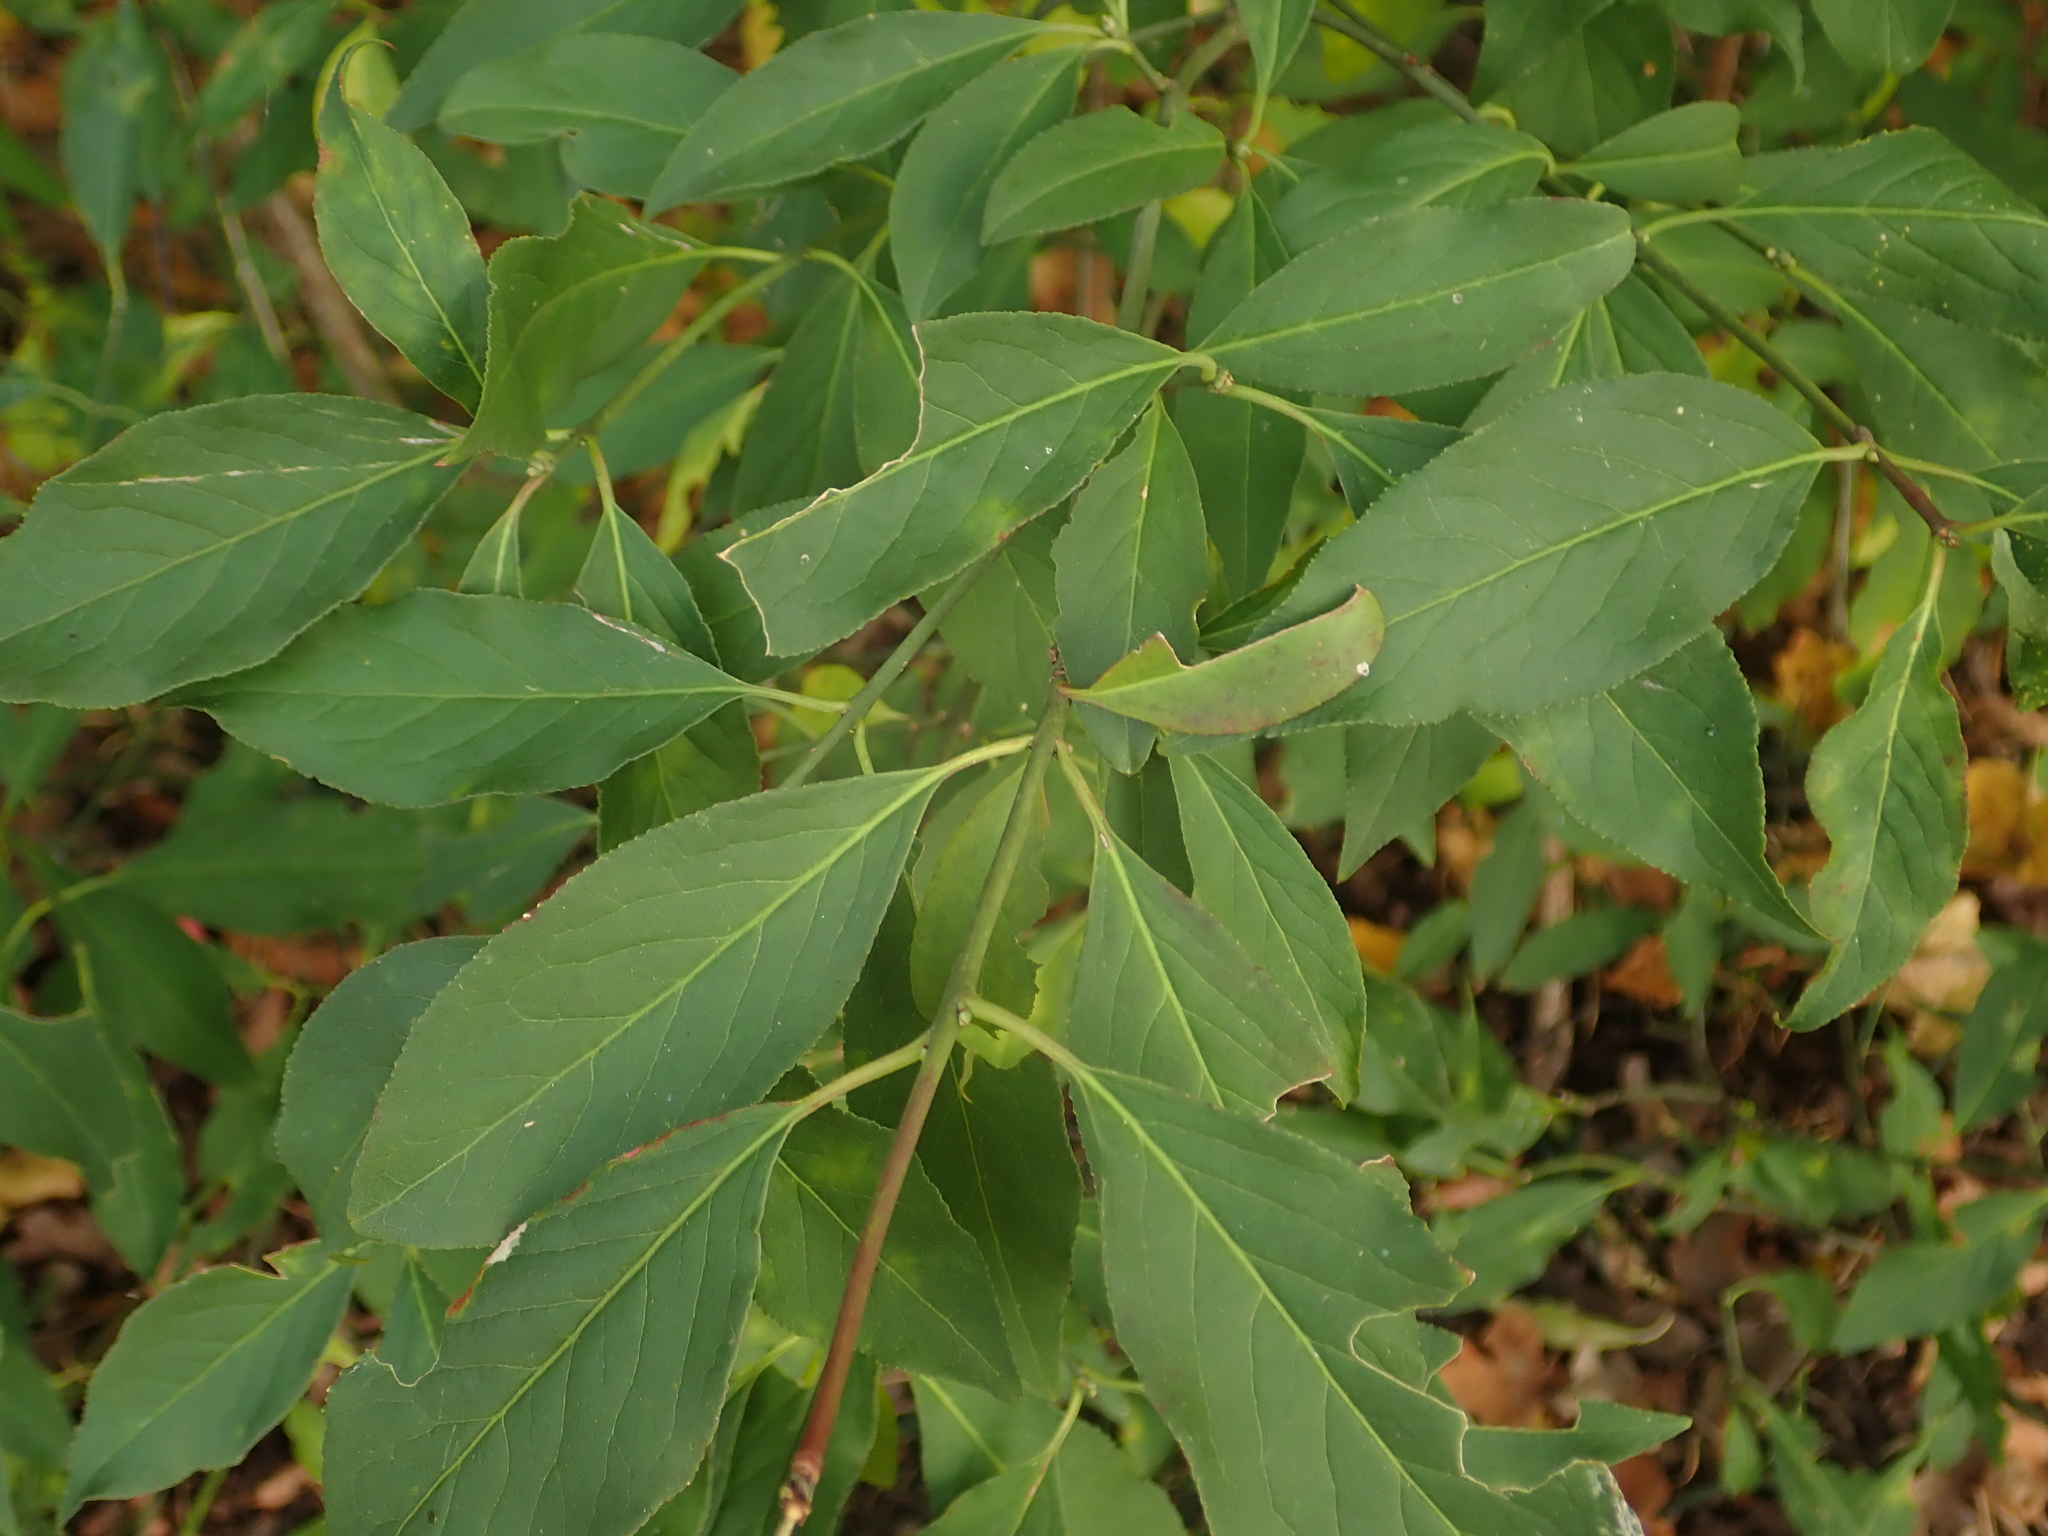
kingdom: Plantae
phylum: Tracheophyta
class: Magnoliopsida
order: Celastrales
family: Celastraceae
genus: Euonymus
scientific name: Euonymus europaeus
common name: Spindle
